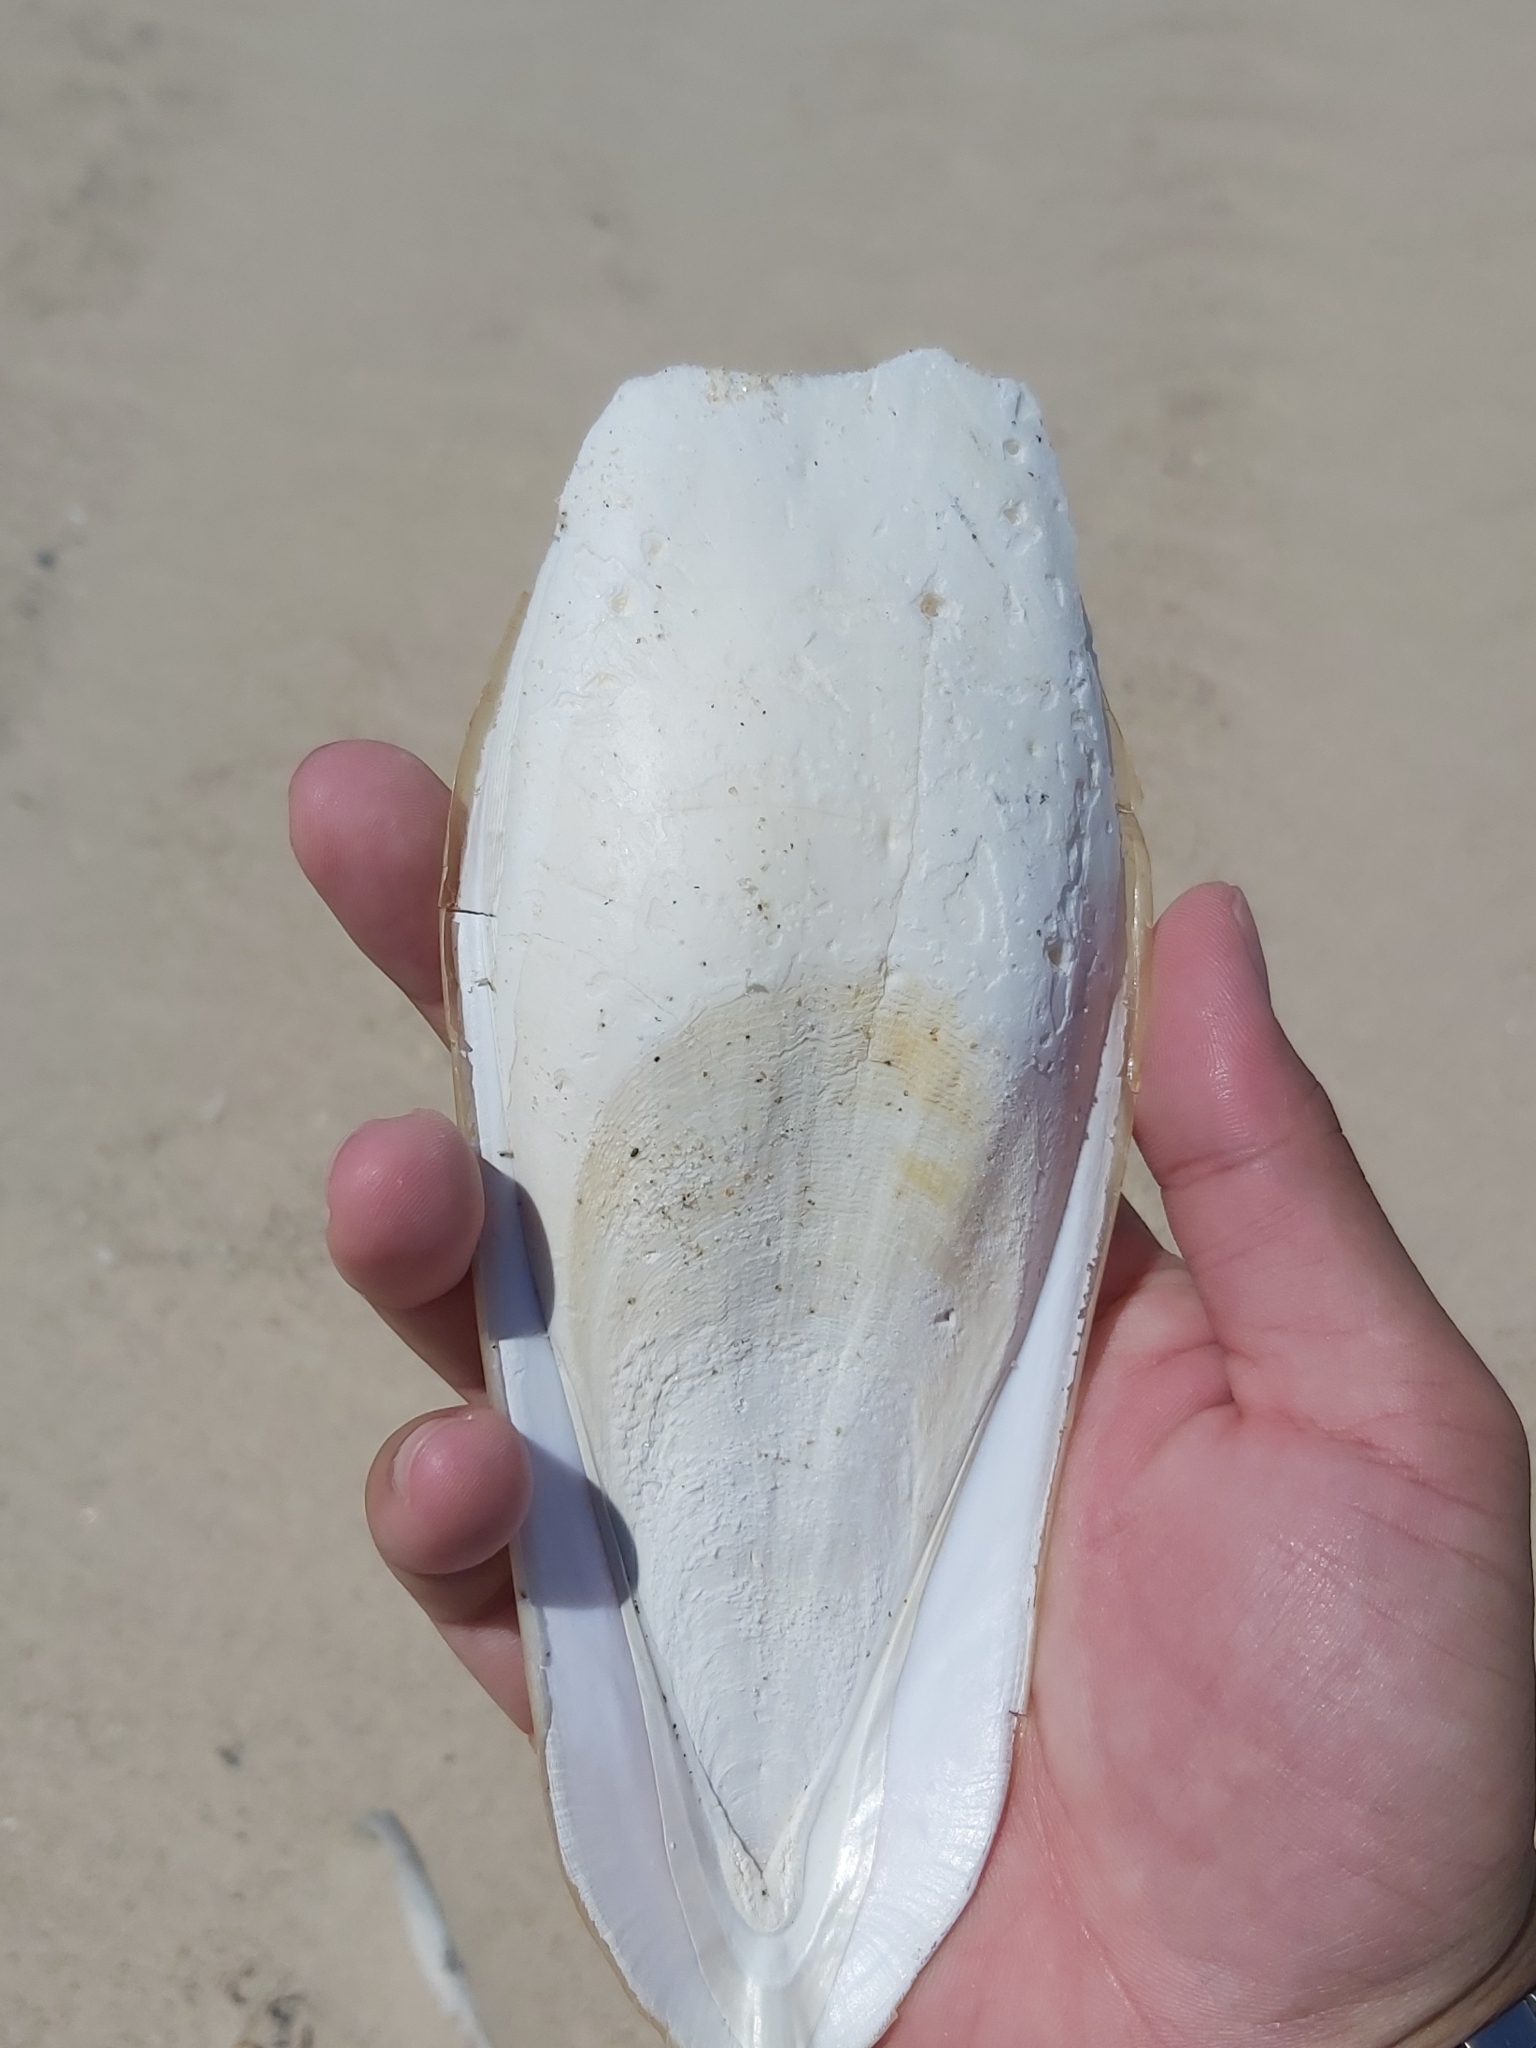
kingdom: Animalia
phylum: Mollusca
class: Cephalopoda
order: Sepiida
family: Sepiidae
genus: Ascarosepion
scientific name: Ascarosepion apama
